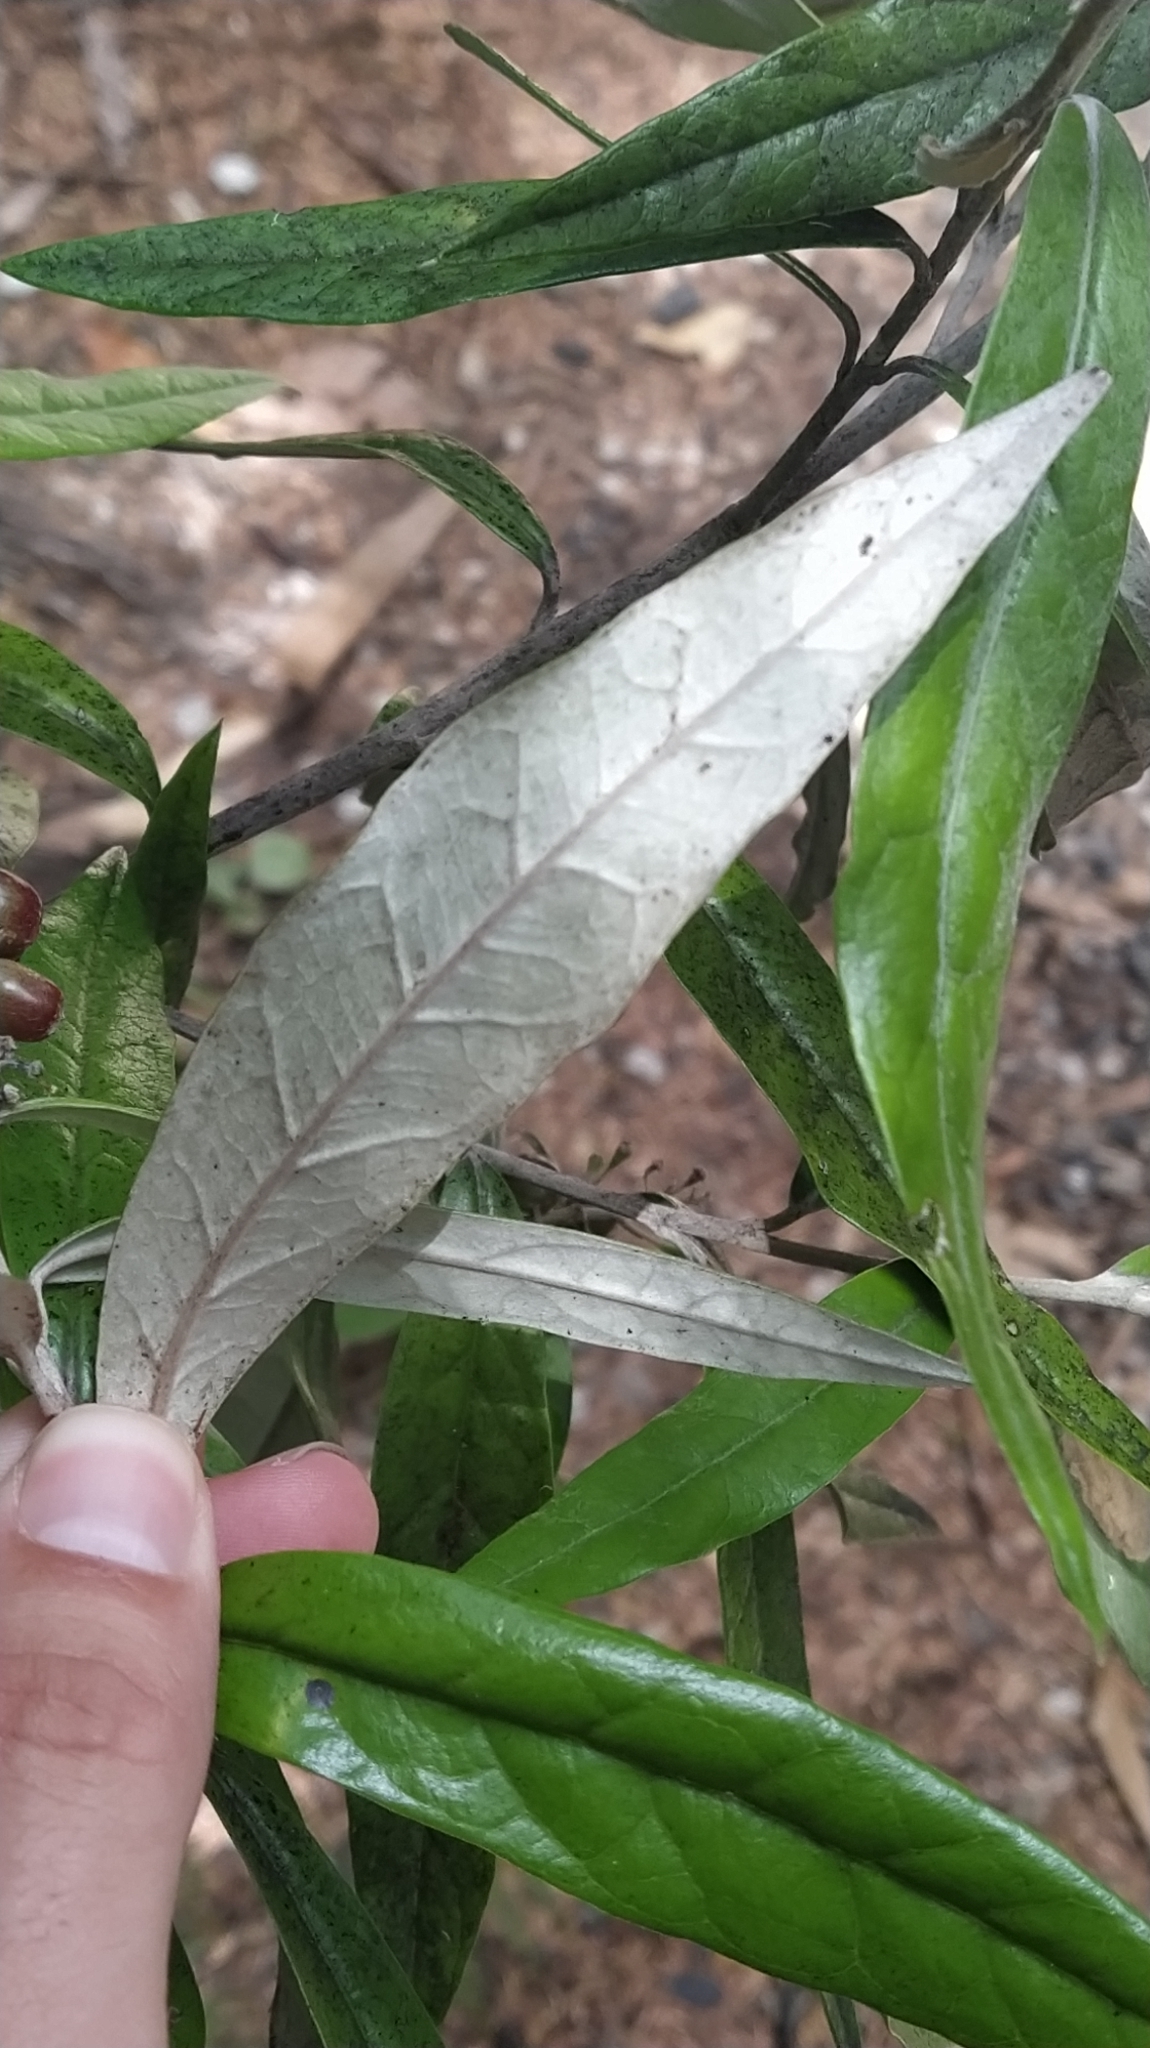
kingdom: Plantae
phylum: Tracheophyta
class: Magnoliopsida
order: Asterales
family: Argophyllaceae
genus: Corokia
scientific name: Corokia buddleioides
